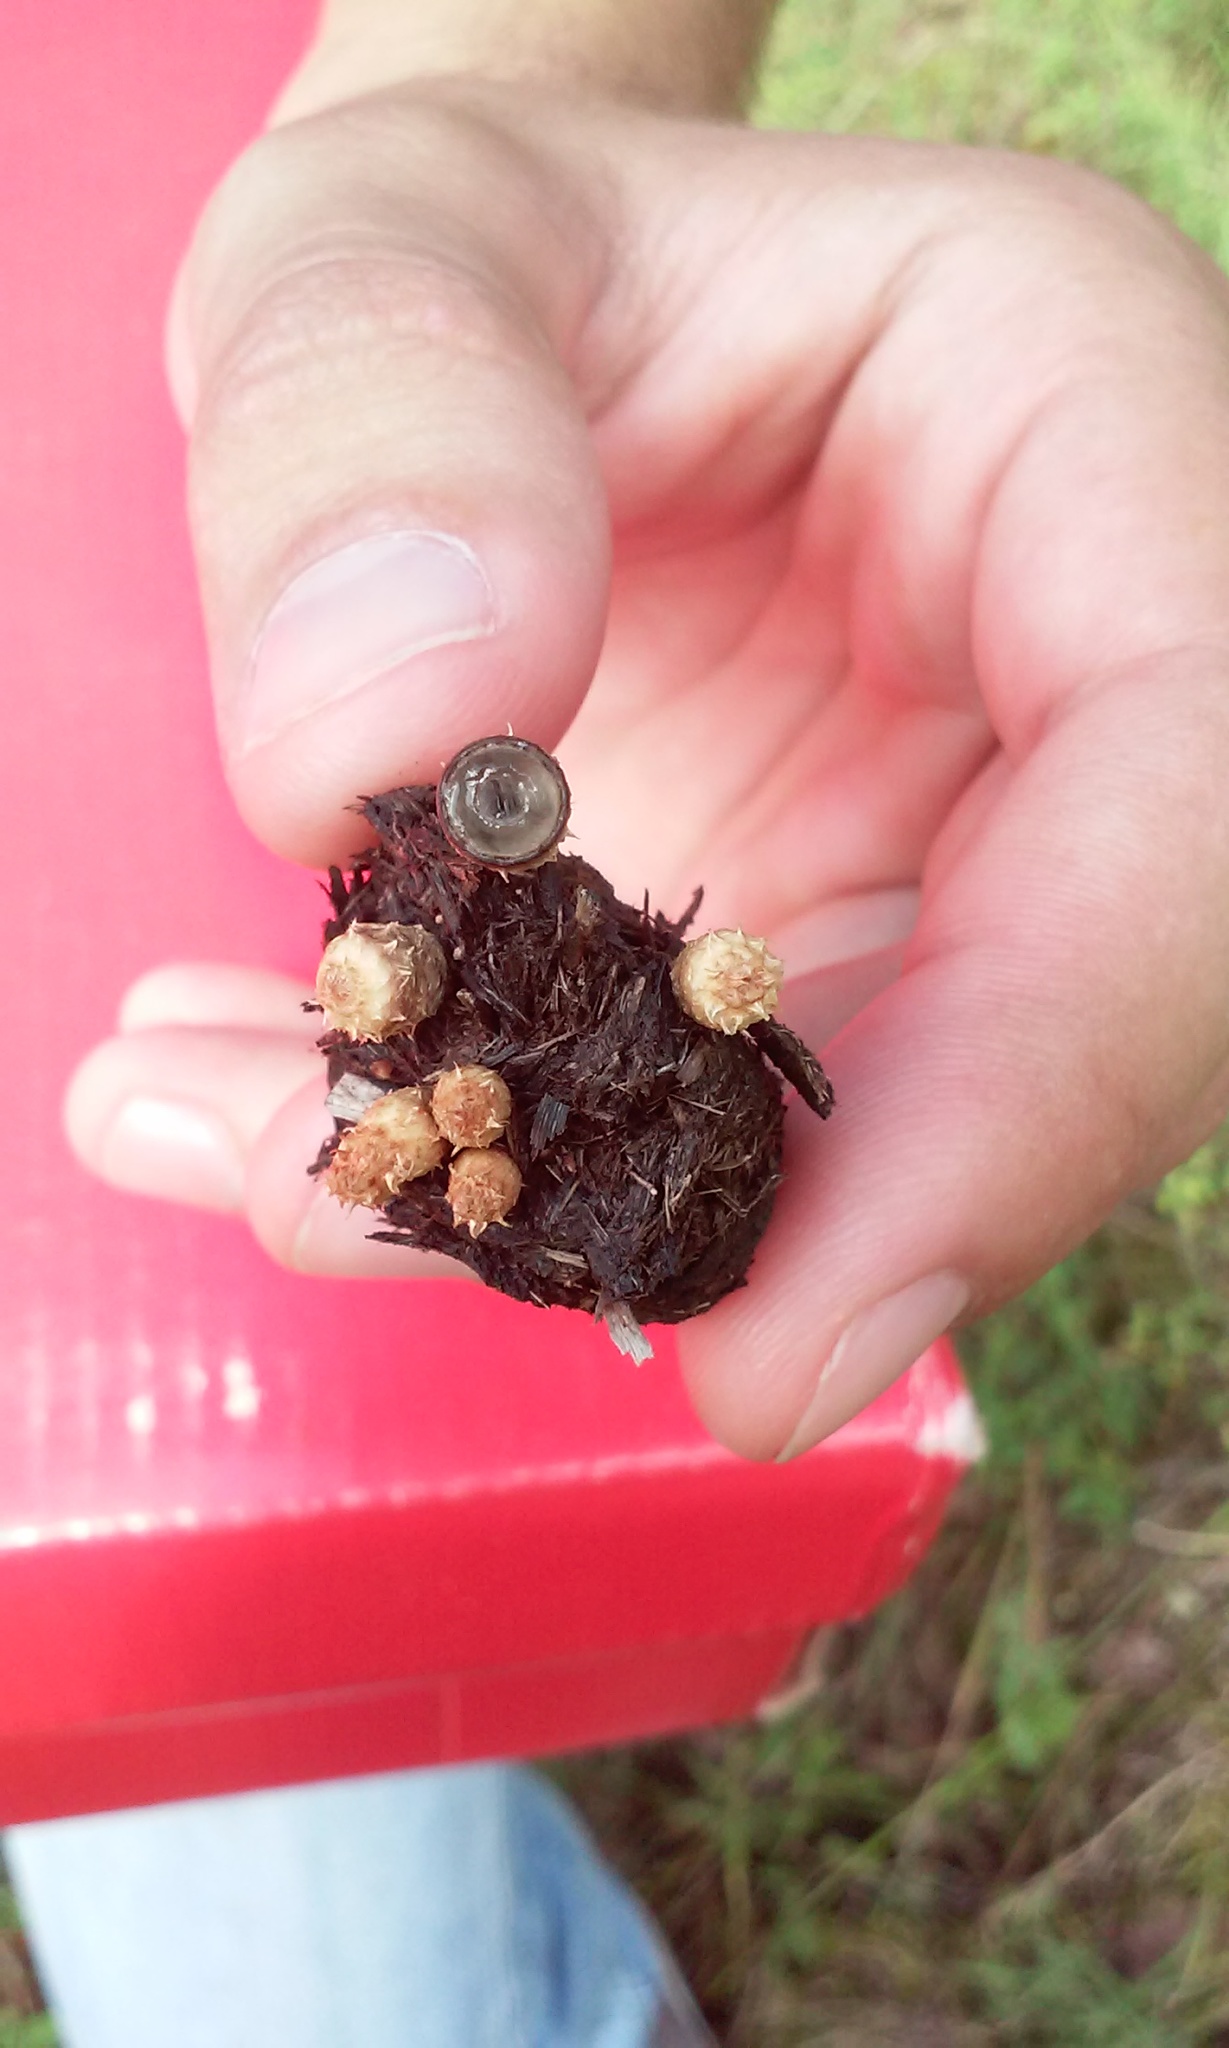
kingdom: Fungi
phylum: Basidiomycota
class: Agaricomycetes
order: Agaricales
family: Agaricaceae
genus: Cyathus
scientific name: Cyathus stercoreus
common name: Dung bird's nest
